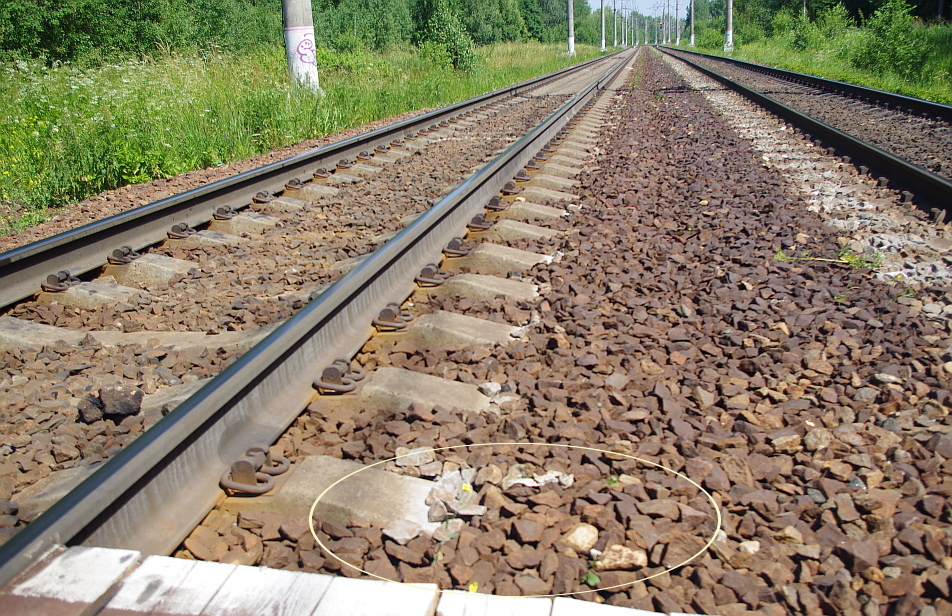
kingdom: Plantae
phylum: Tracheophyta
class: Magnoliopsida
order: Asterales
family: Asteraceae
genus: Senecio
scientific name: Senecio vulgaris
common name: Old-man-in-the-spring
